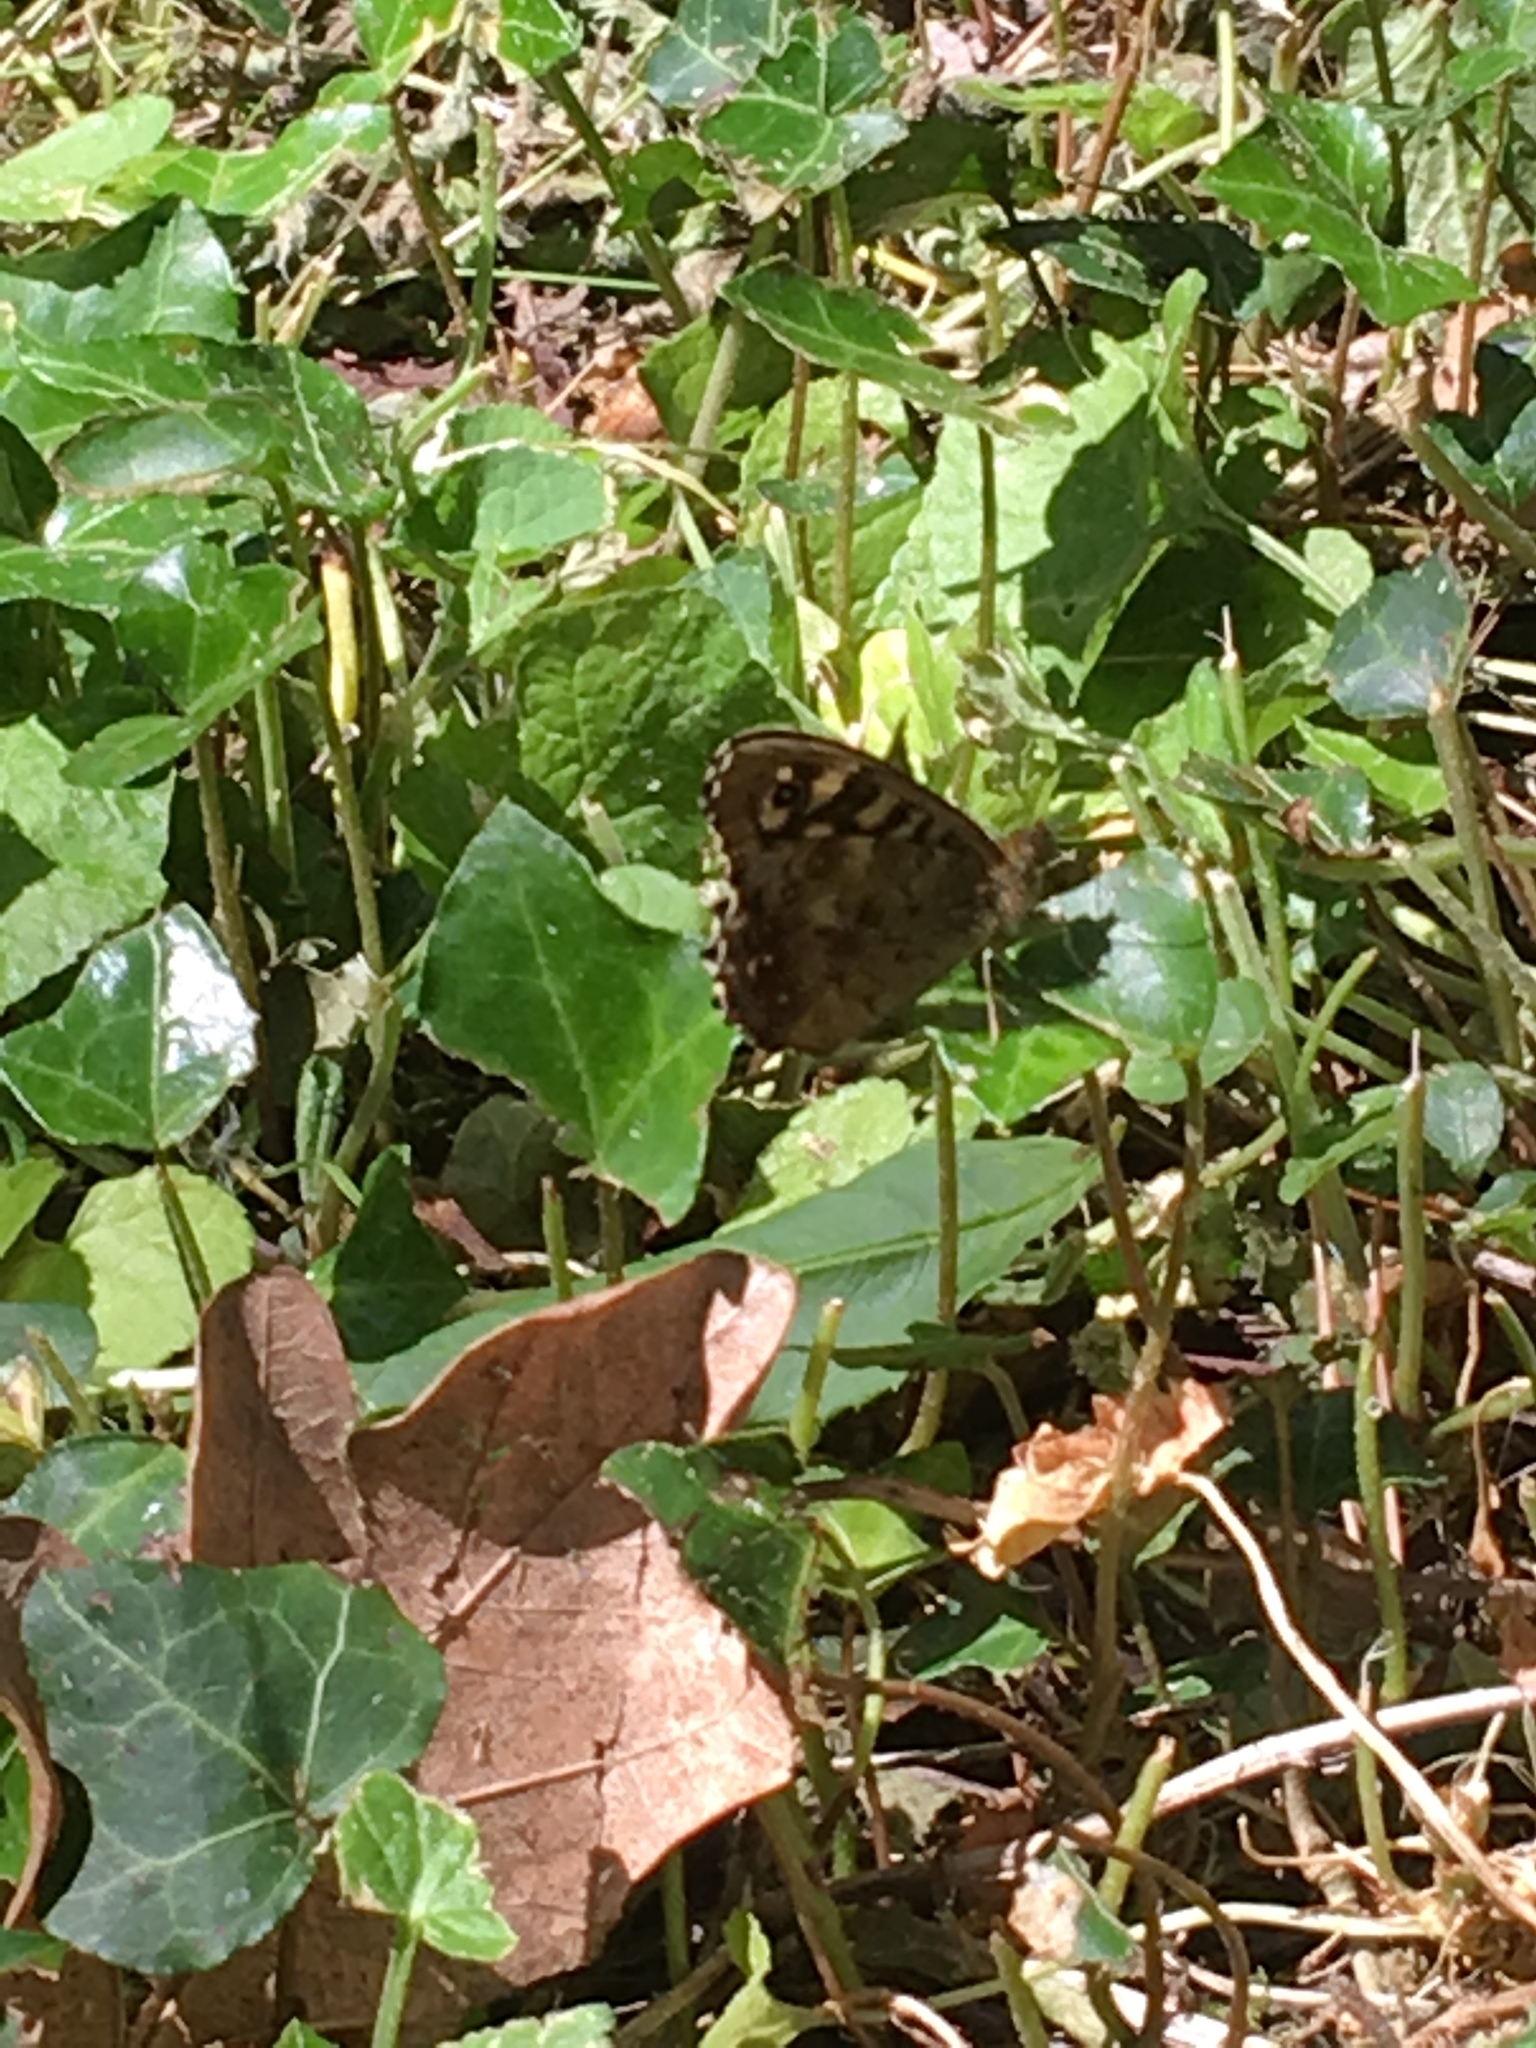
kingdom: Animalia
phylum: Arthropoda
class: Insecta
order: Lepidoptera
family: Nymphalidae
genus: Pararge
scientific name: Pararge aegeria
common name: Speckled wood
